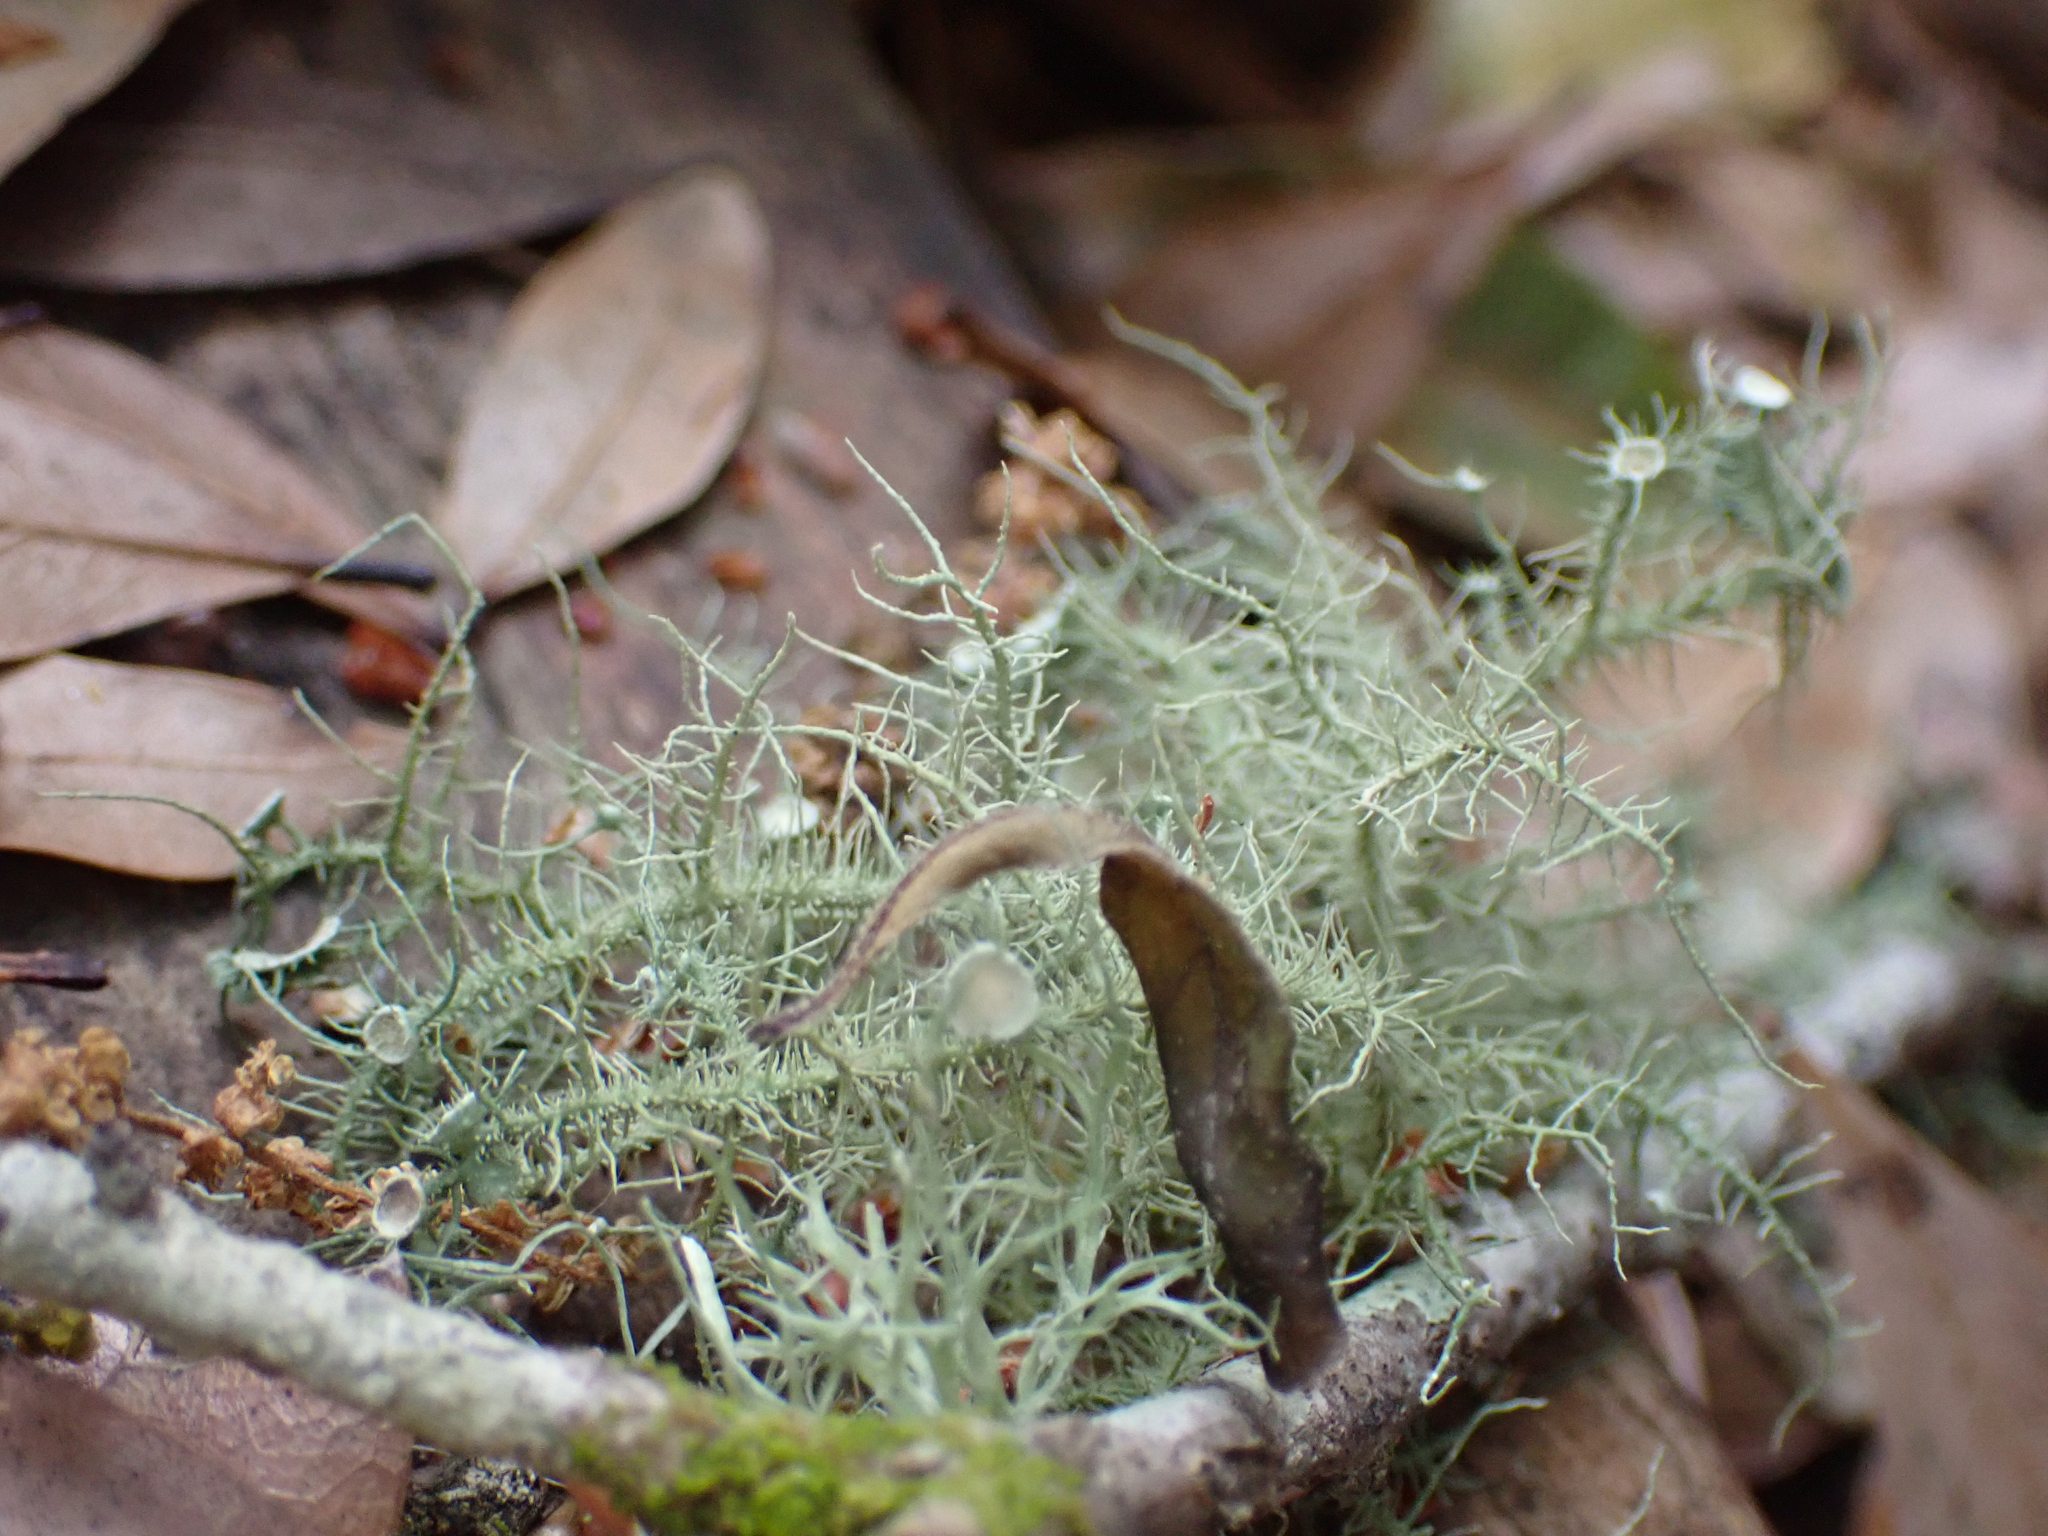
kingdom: Fungi
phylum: Ascomycota
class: Lecanoromycetes
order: Lecanorales
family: Parmeliaceae
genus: Usnea
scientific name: Usnea strigosa
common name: Bushy beard lichen
